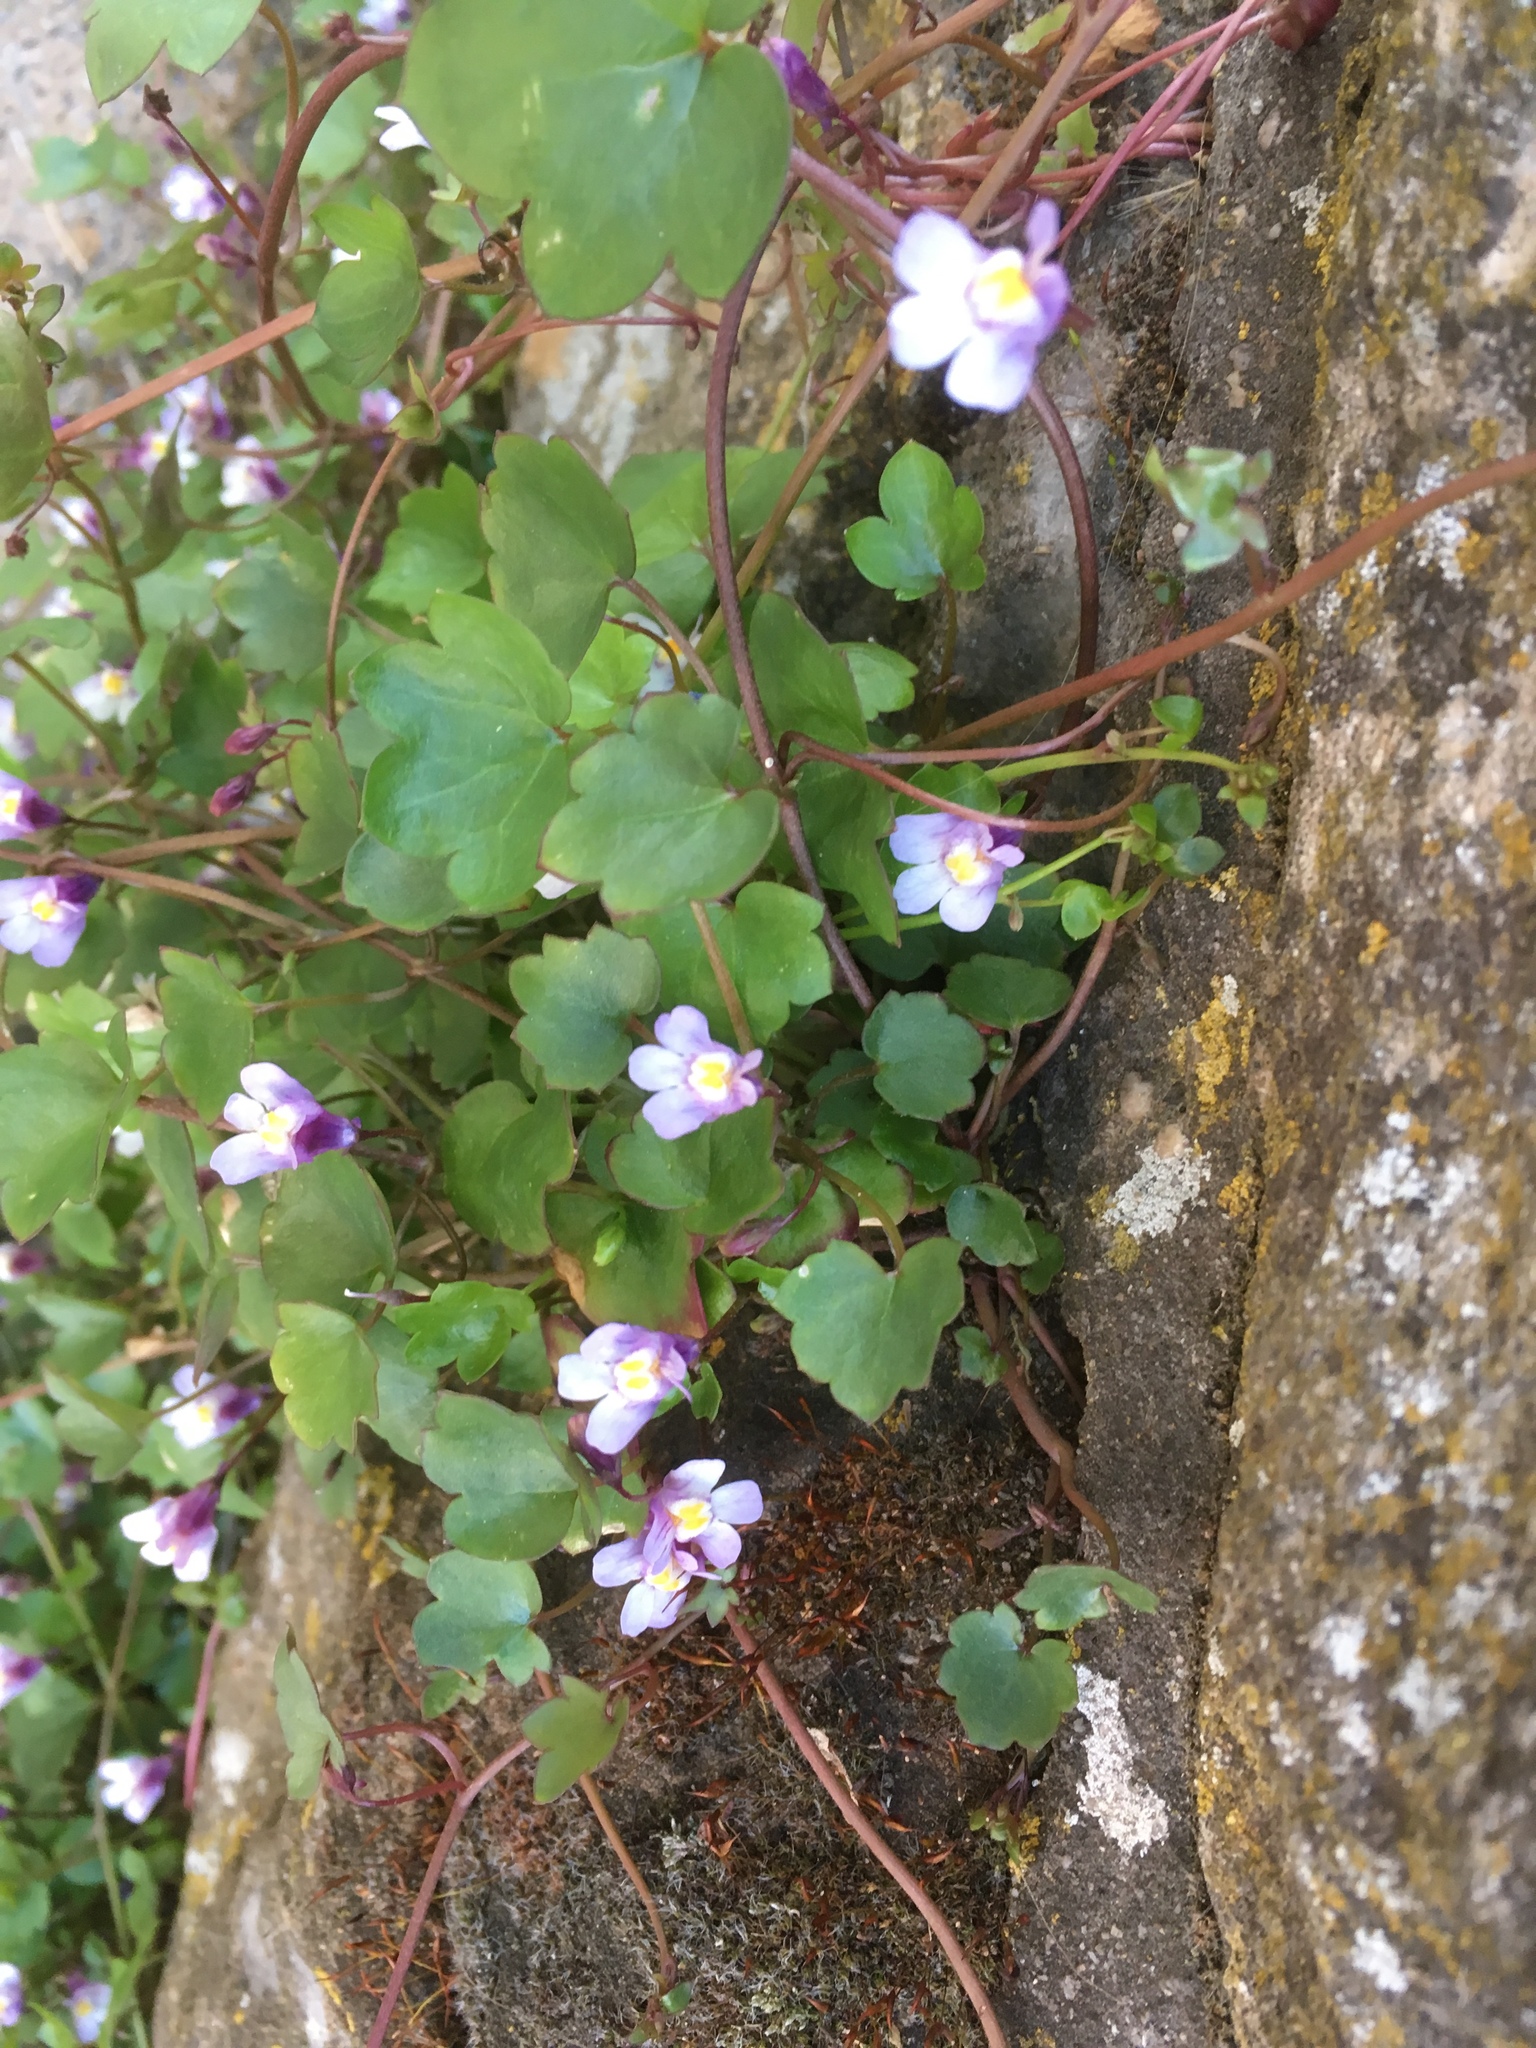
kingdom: Plantae
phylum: Tracheophyta
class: Magnoliopsida
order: Lamiales
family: Plantaginaceae
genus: Cymbalaria
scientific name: Cymbalaria muralis
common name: Ivy-leaved toadflax
